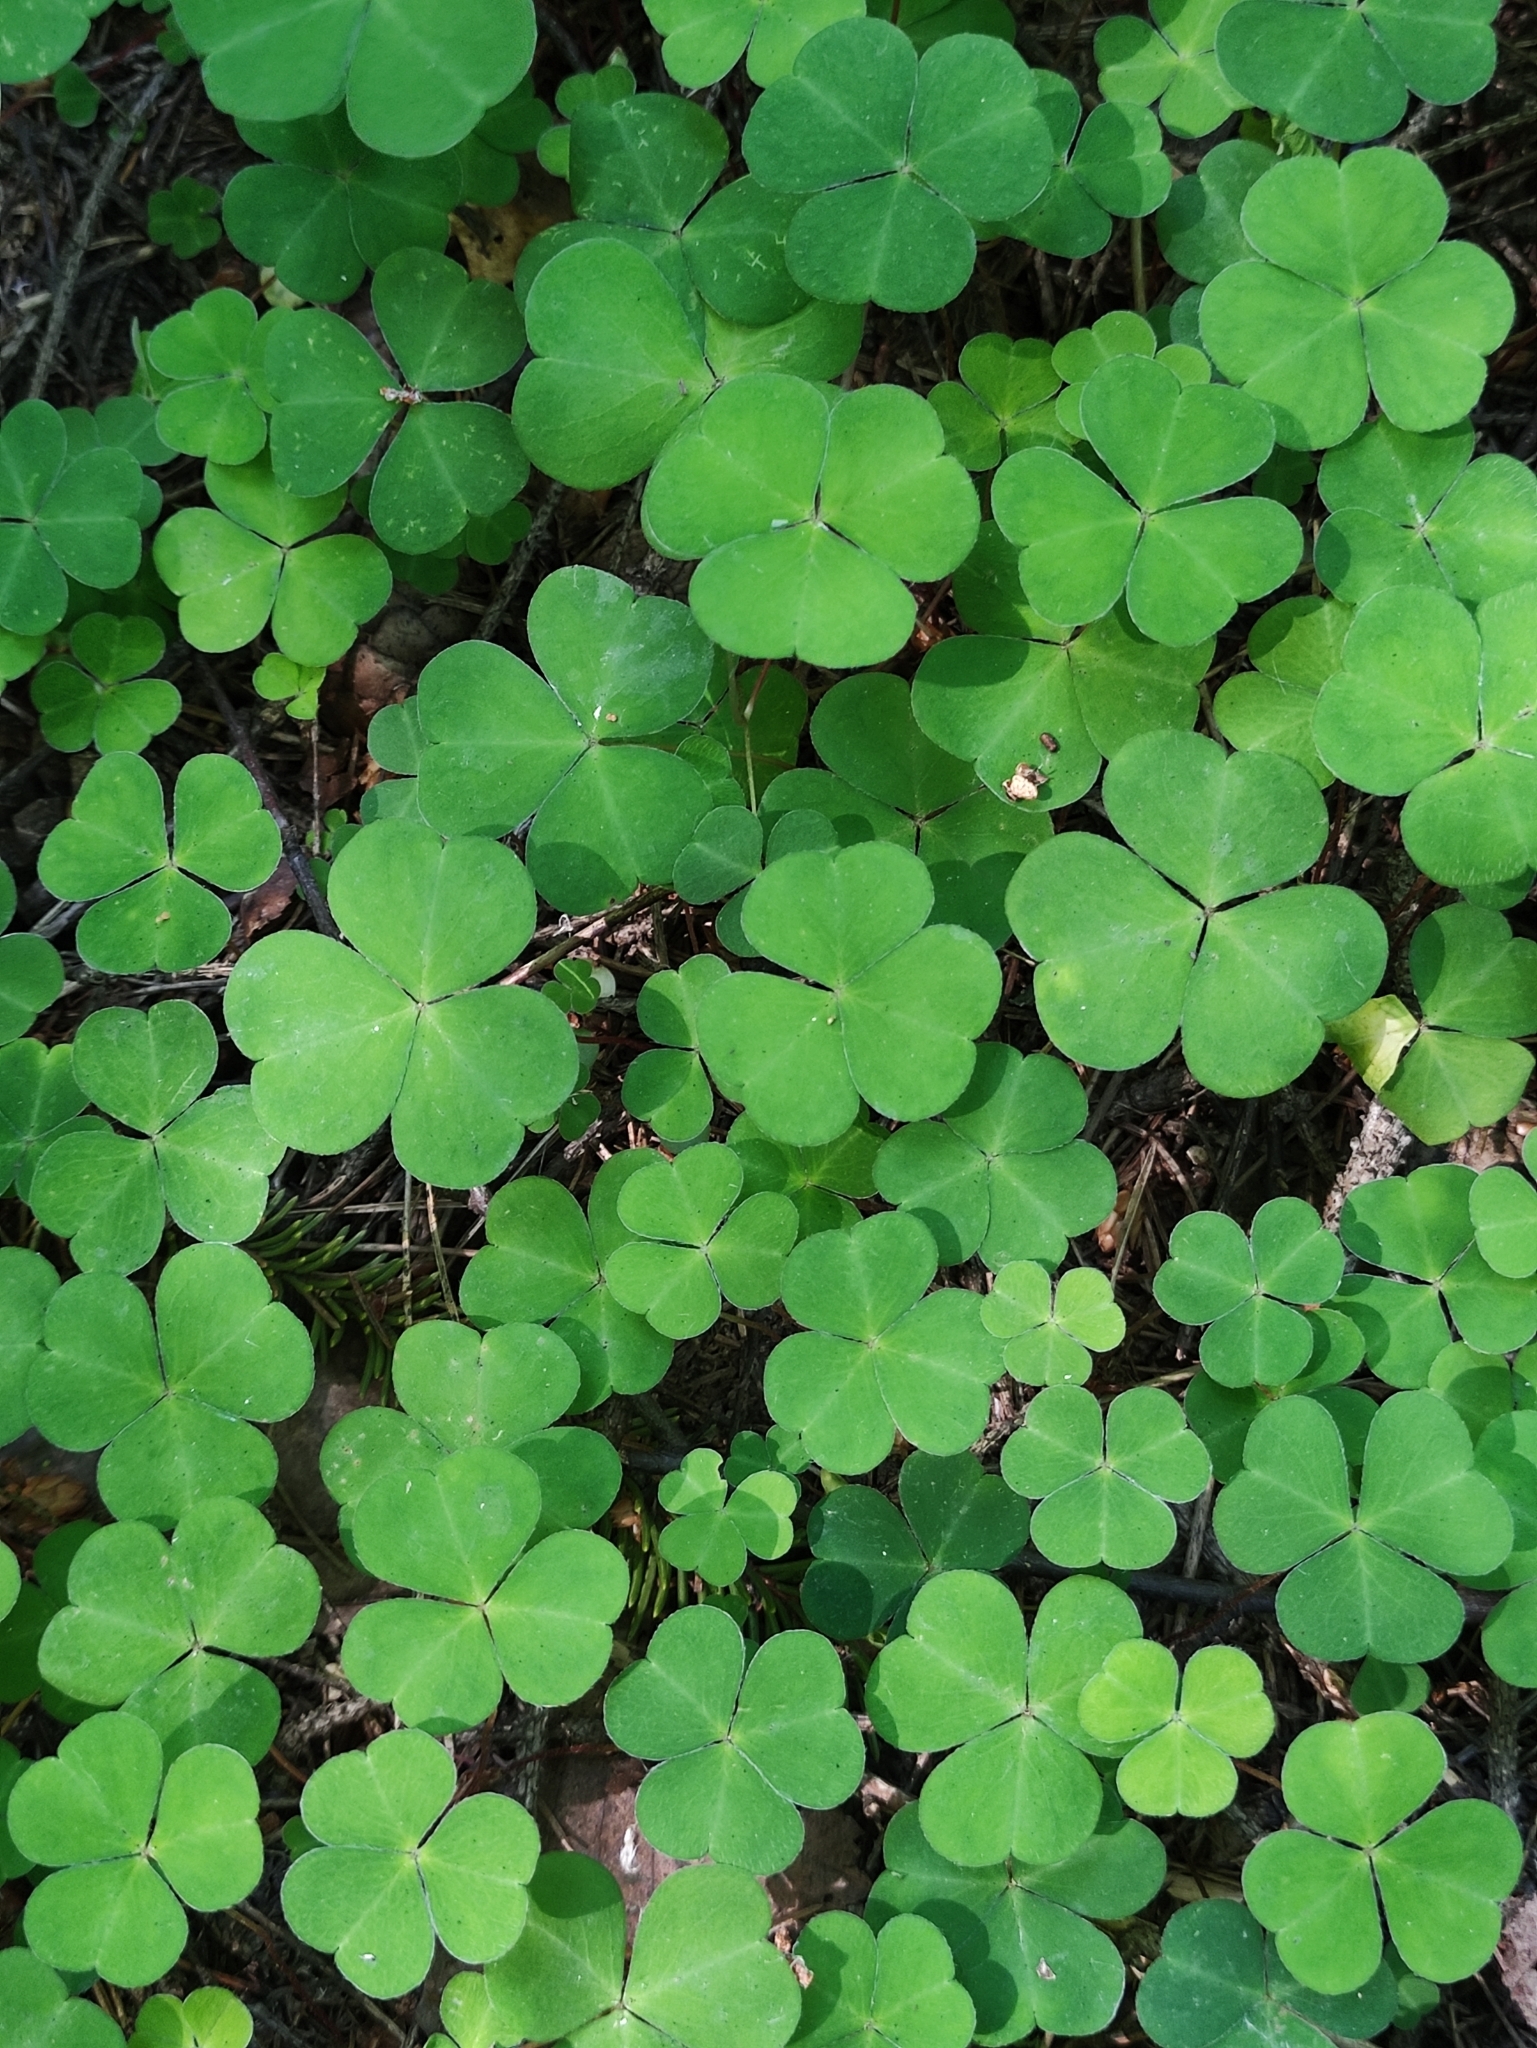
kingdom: Plantae
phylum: Tracheophyta
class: Magnoliopsida
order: Oxalidales
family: Oxalidaceae
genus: Oxalis
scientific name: Oxalis acetosella
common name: Wood-sorrel
